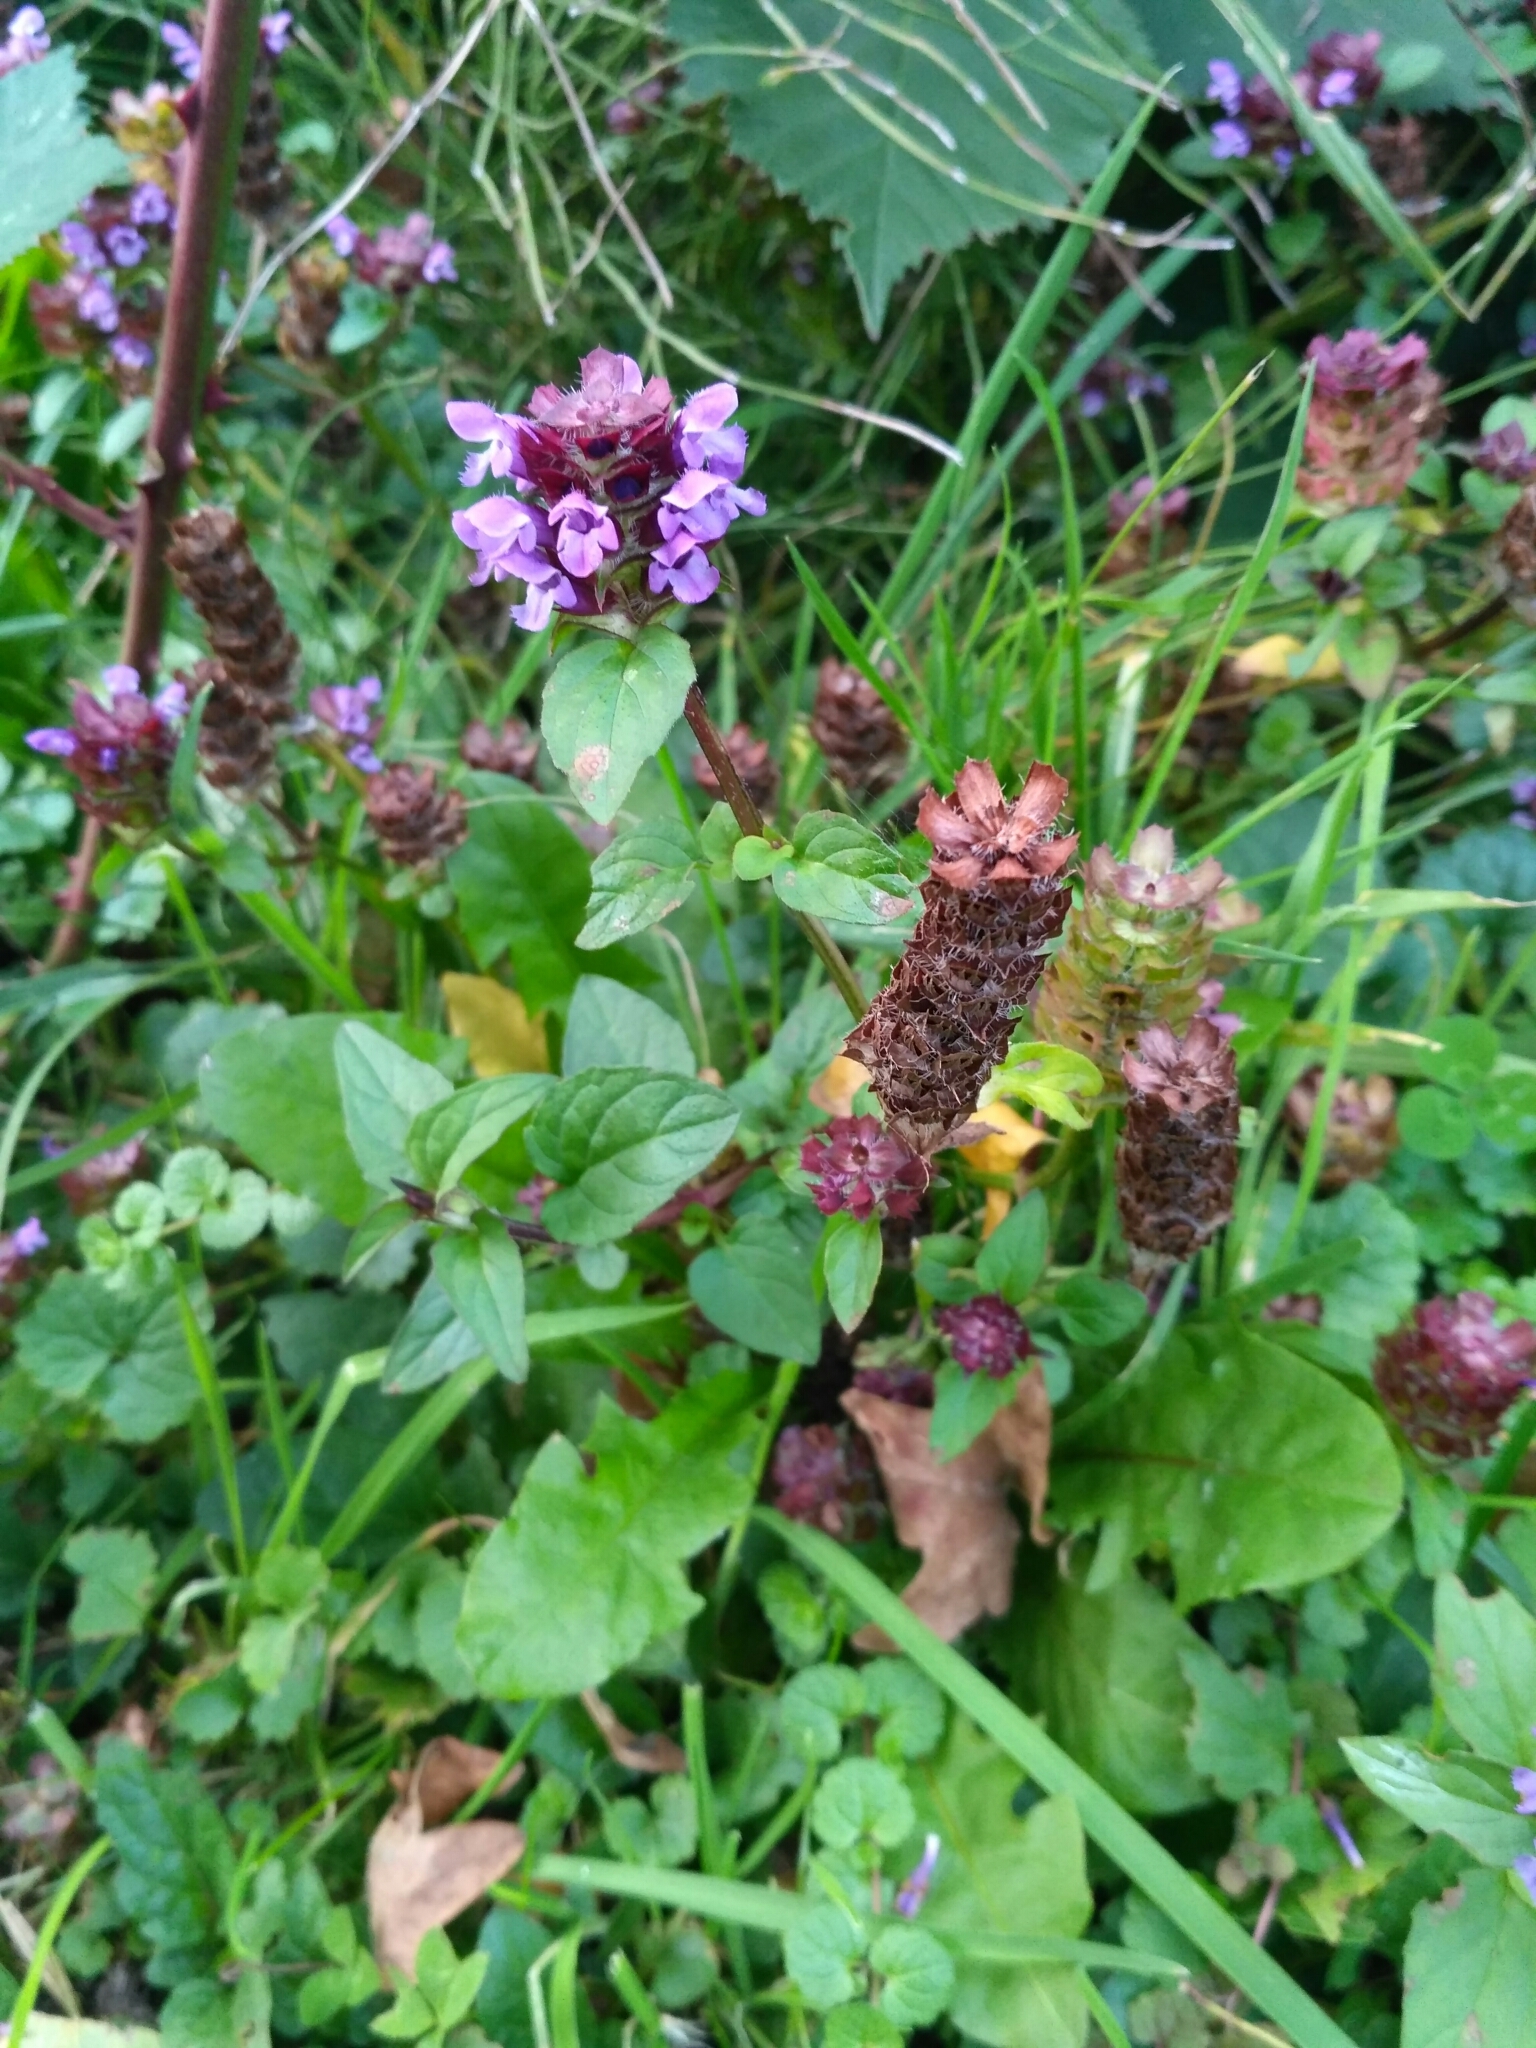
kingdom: Plantae
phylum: Tracheophyta
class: Magnoliopsida
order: Lamiales
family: Lamiaceae
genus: Prunella
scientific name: Prunella vulgaris
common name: Heal-all
